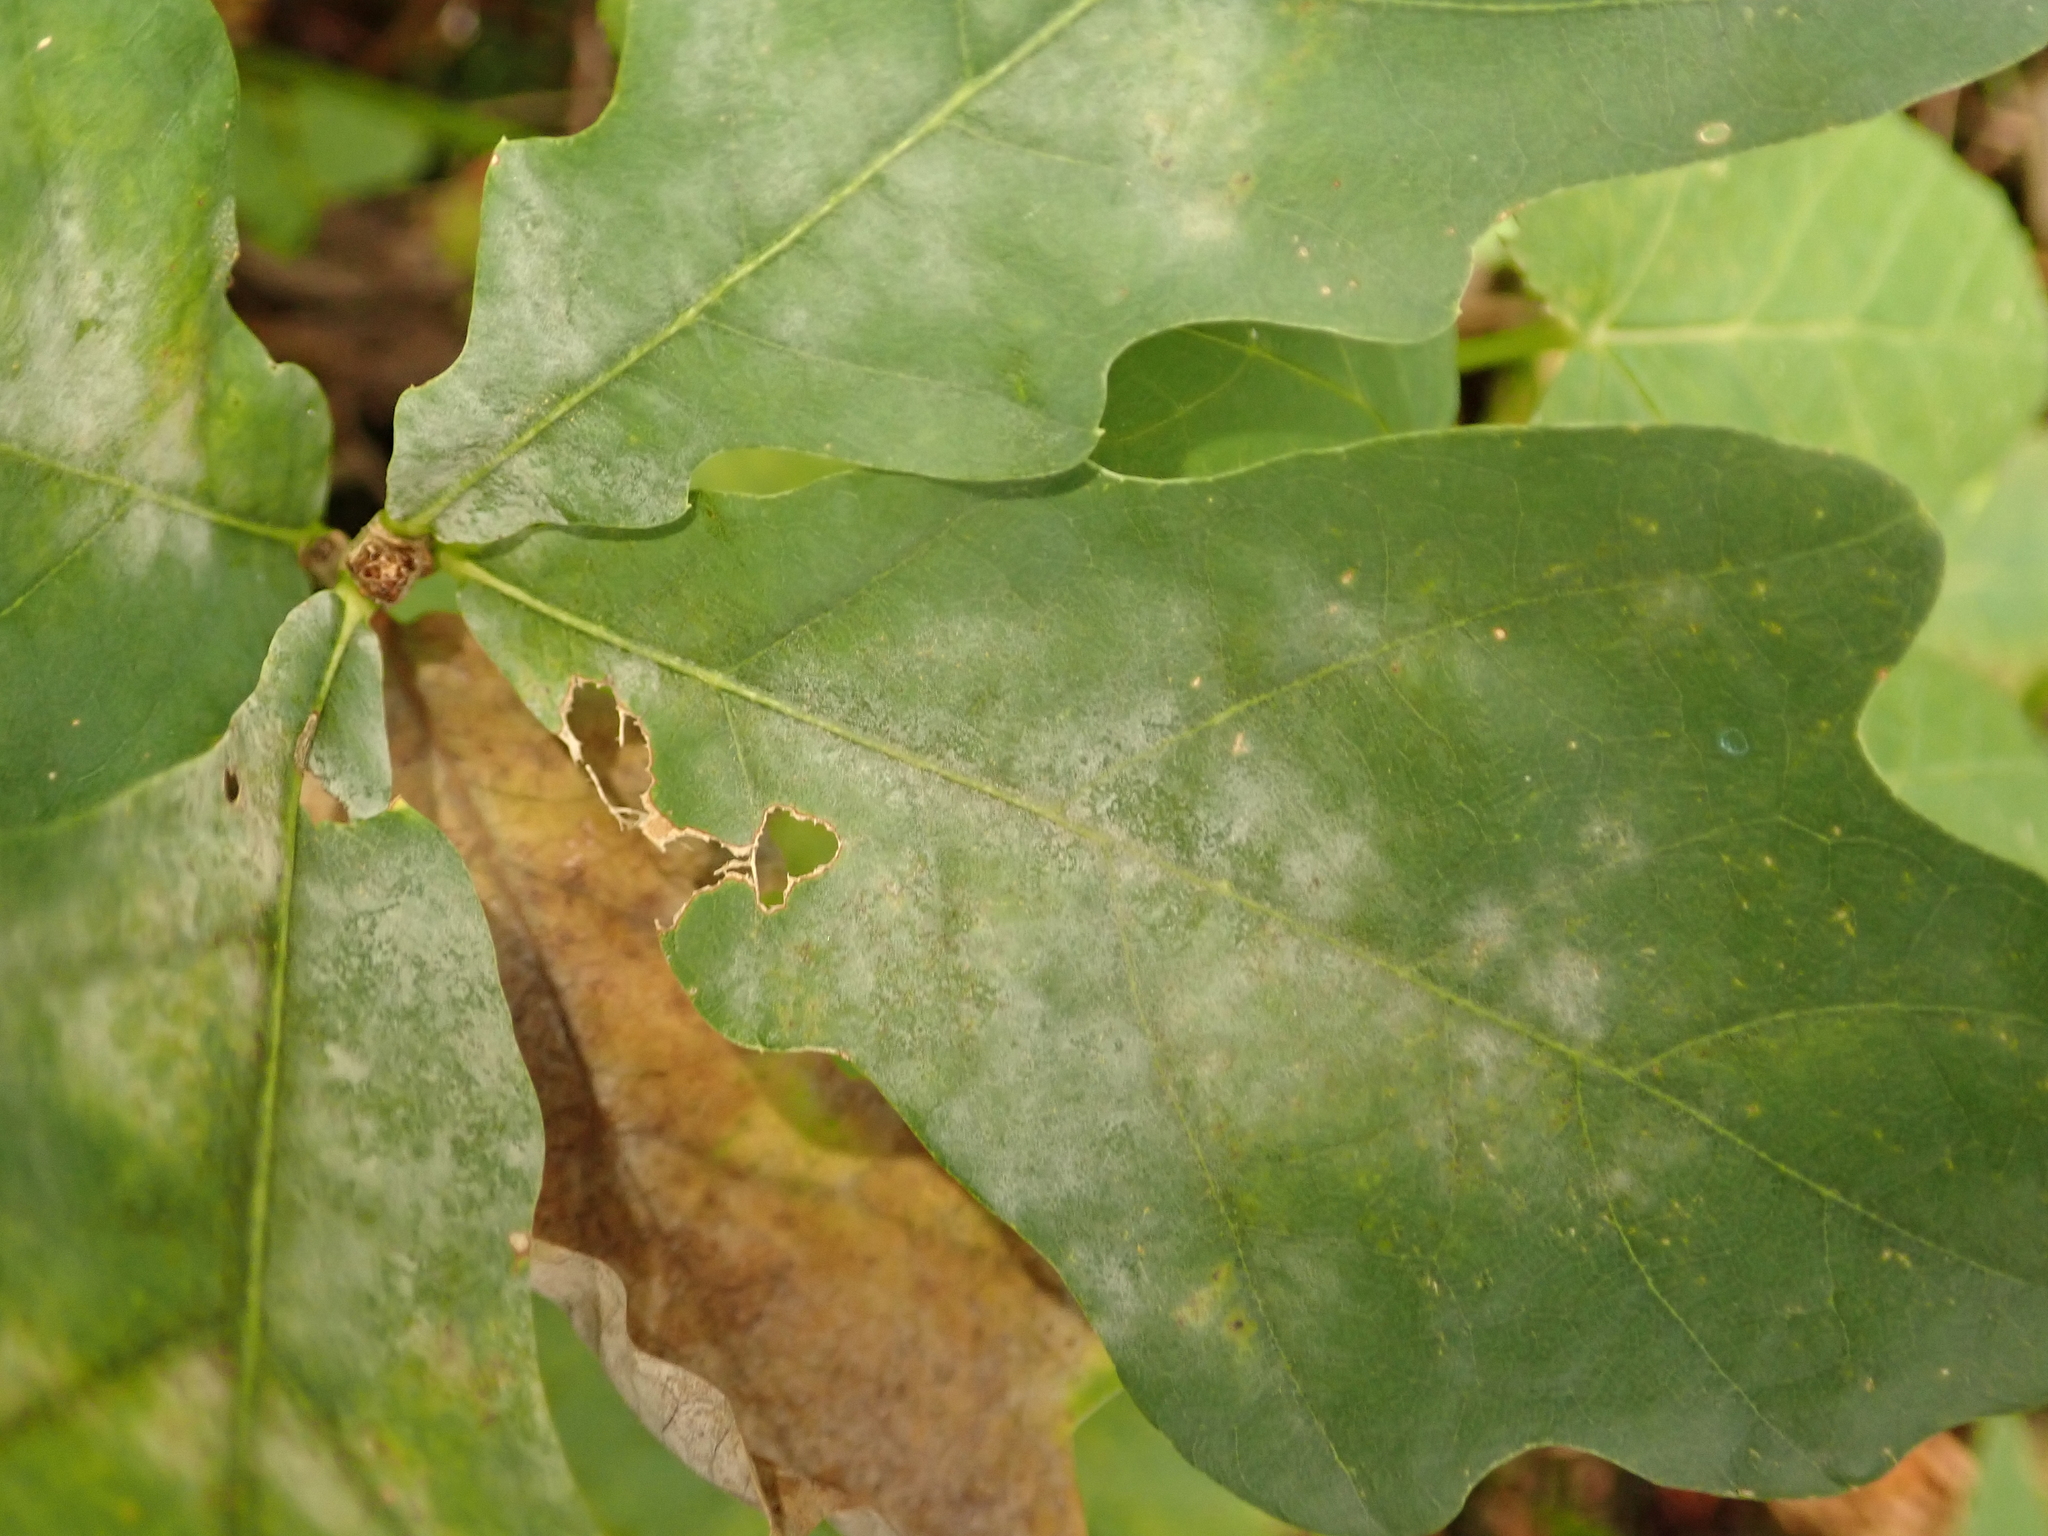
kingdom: Fungi
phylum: Ascomycota
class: Leotiomycetes
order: Helotiales
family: Erysiphaceae
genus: Erysiphe
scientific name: Erysiphe
